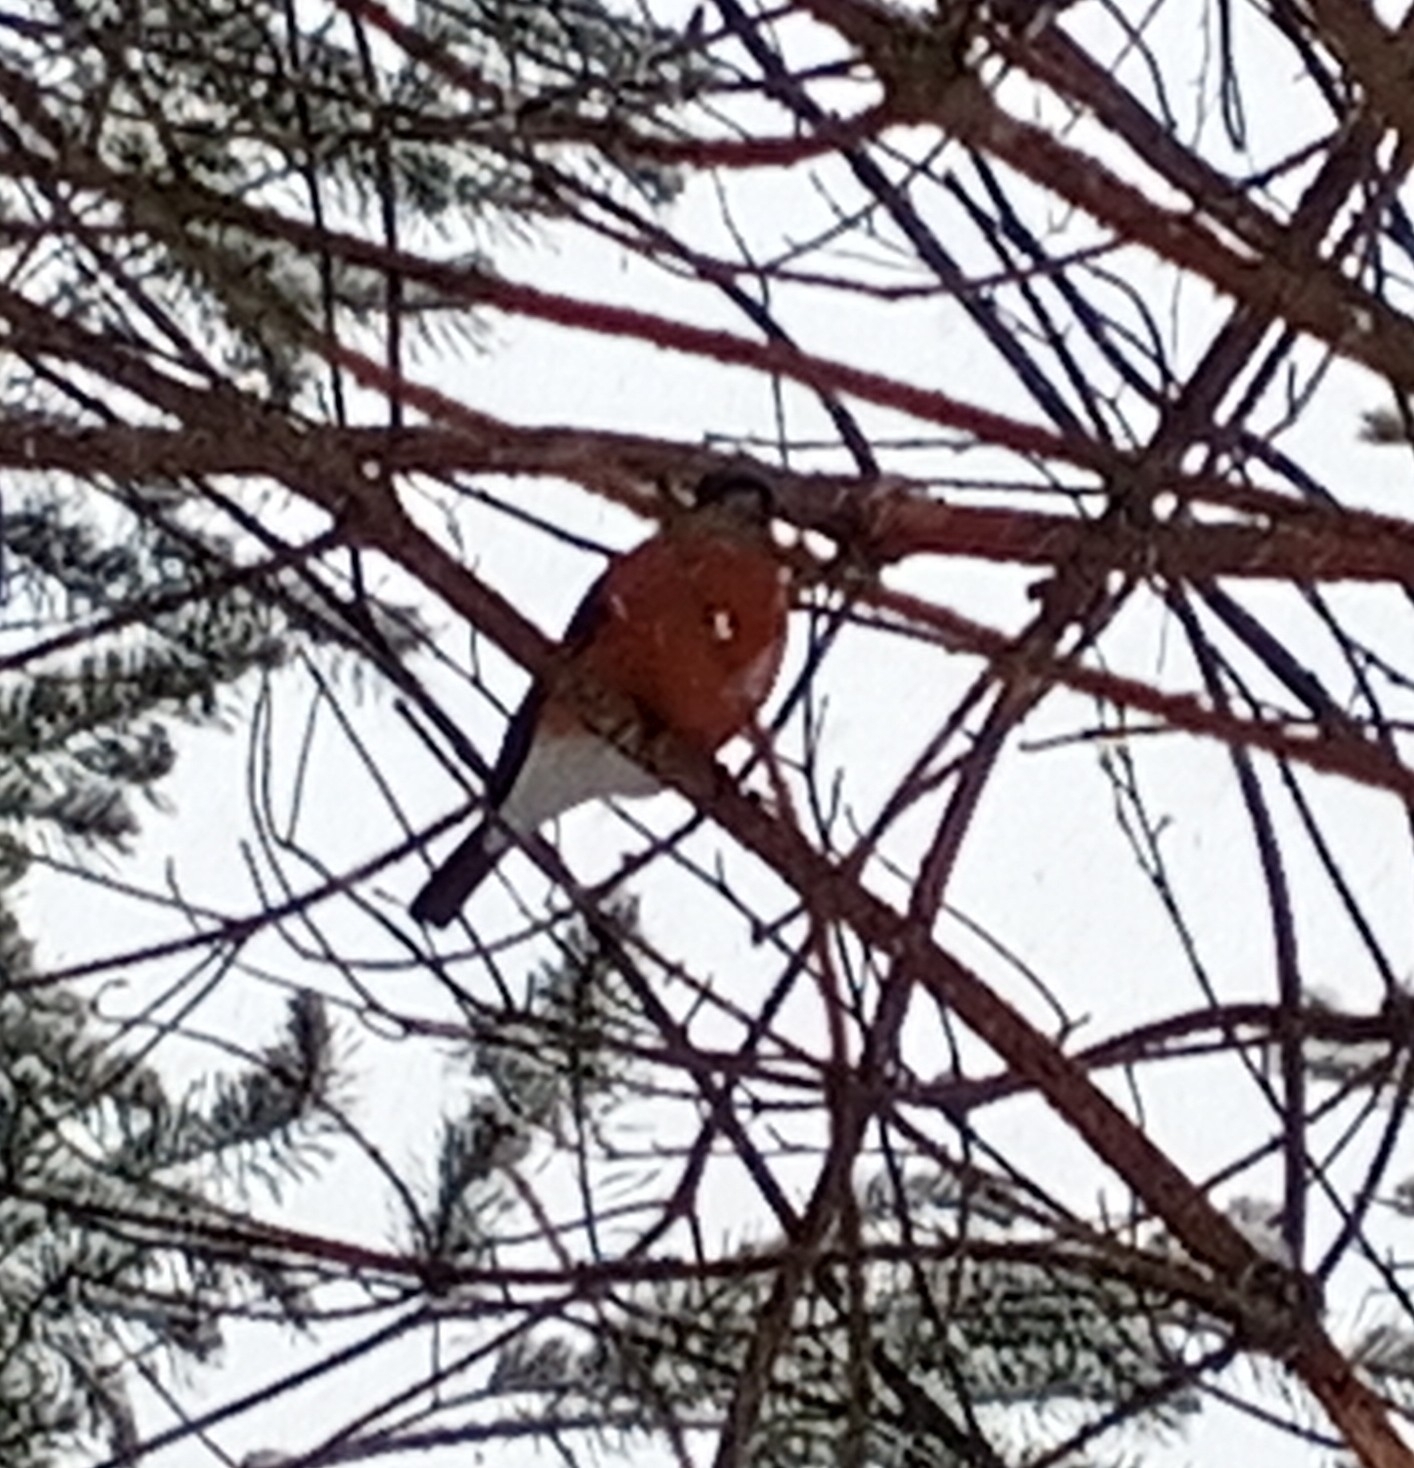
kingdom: Animalia
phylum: Chordata
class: Aves
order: Passeriformes
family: Fringillidae
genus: Pyrrhula
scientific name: Pyrrhula pyrrhula
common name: Eurasian bullfinch
